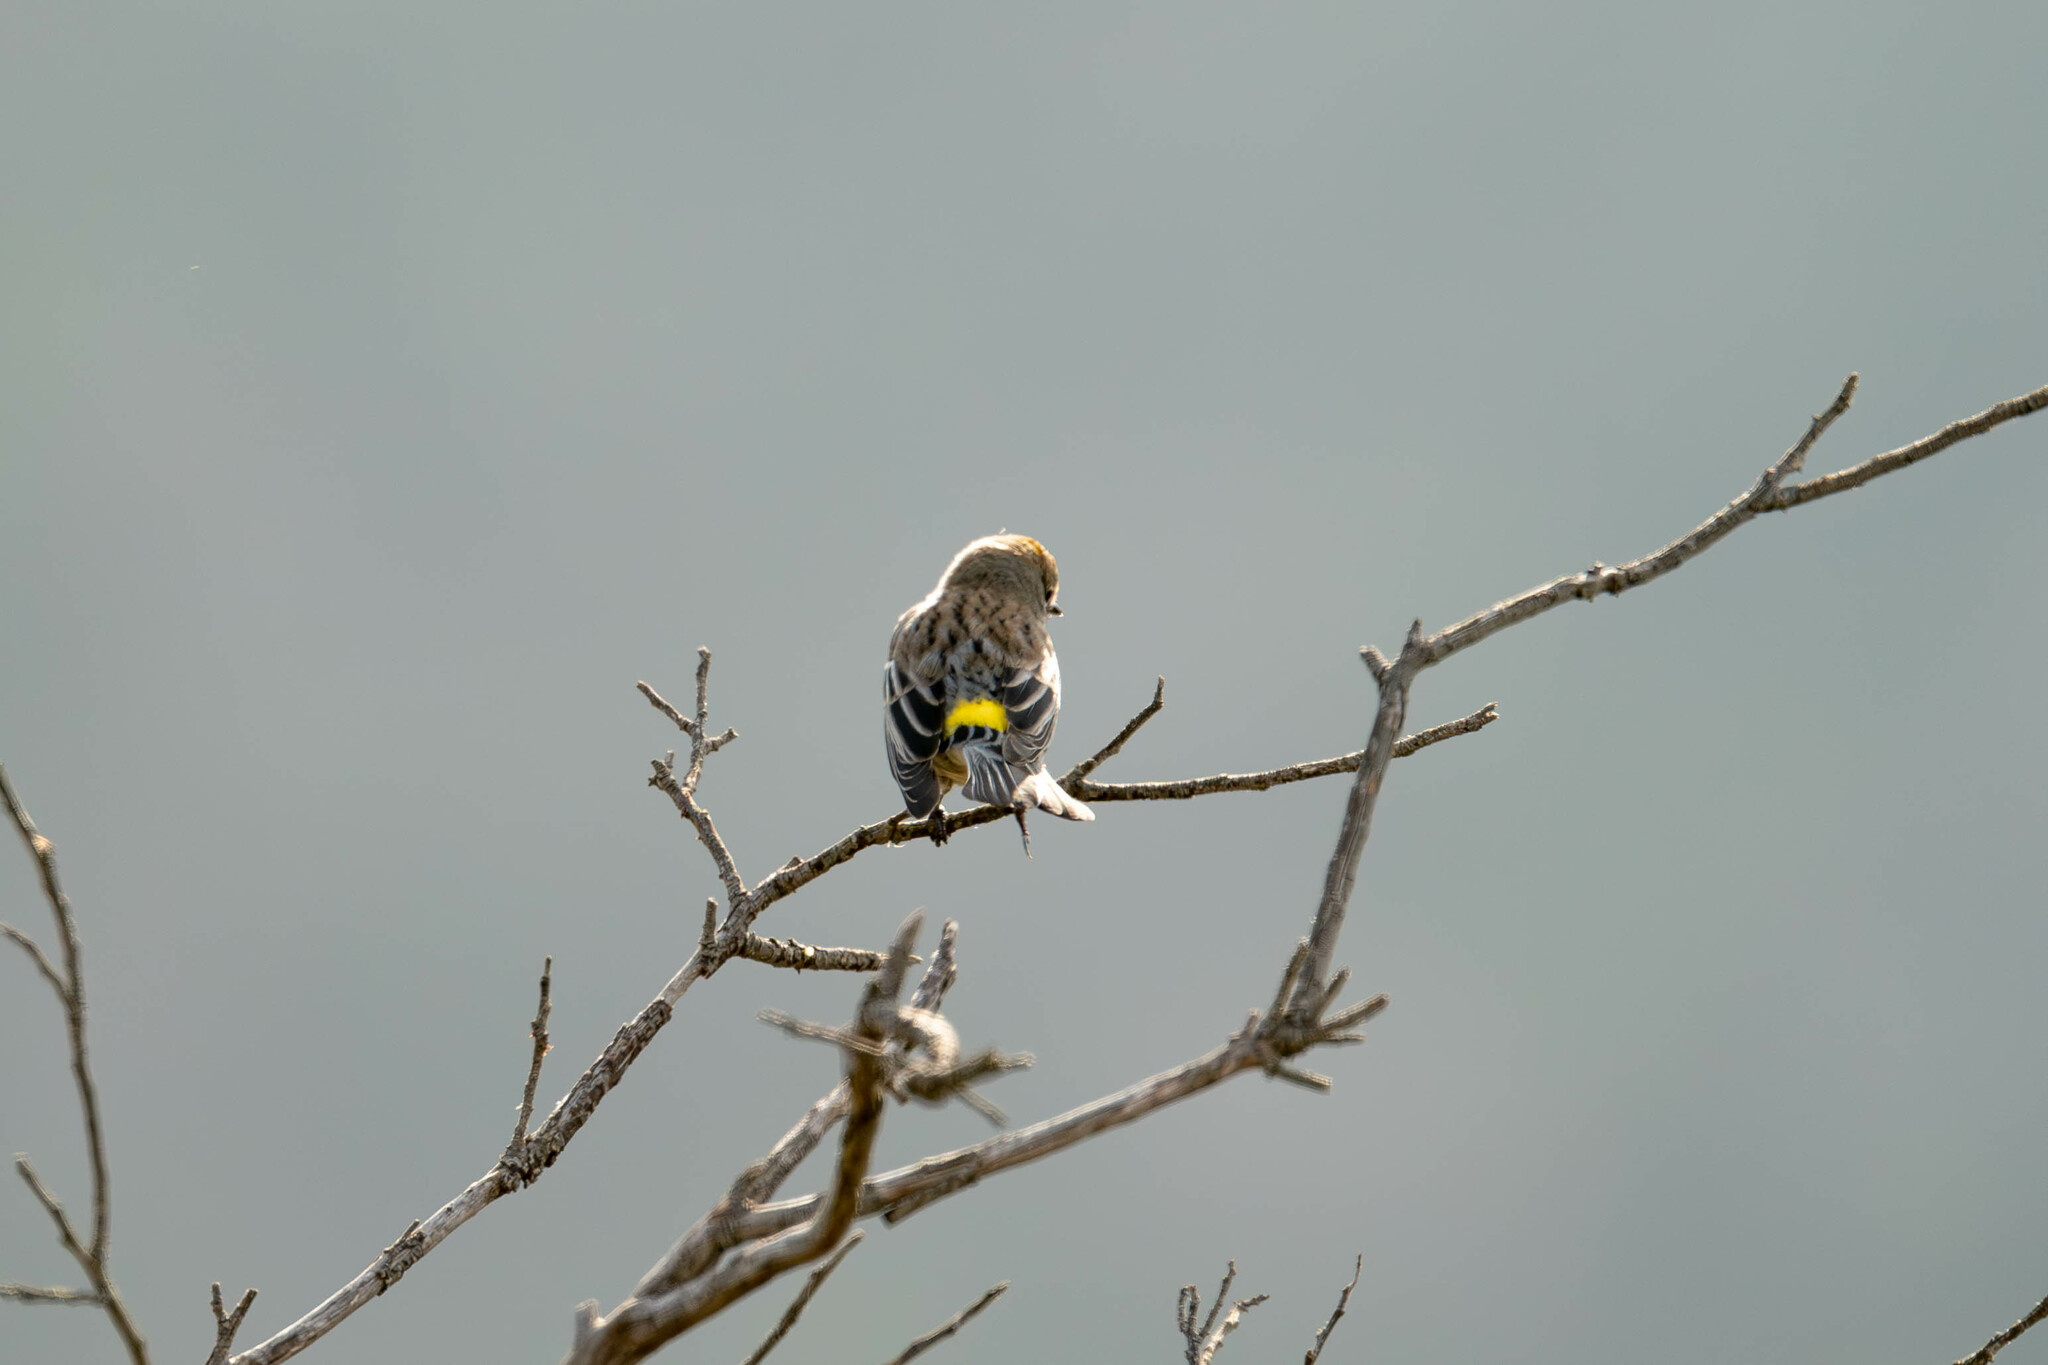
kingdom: Animalia
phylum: Chordata
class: Aves
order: Passeriformes
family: Parulidae
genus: Setophaga
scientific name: Setophaga coronata
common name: Myrtle warbler
